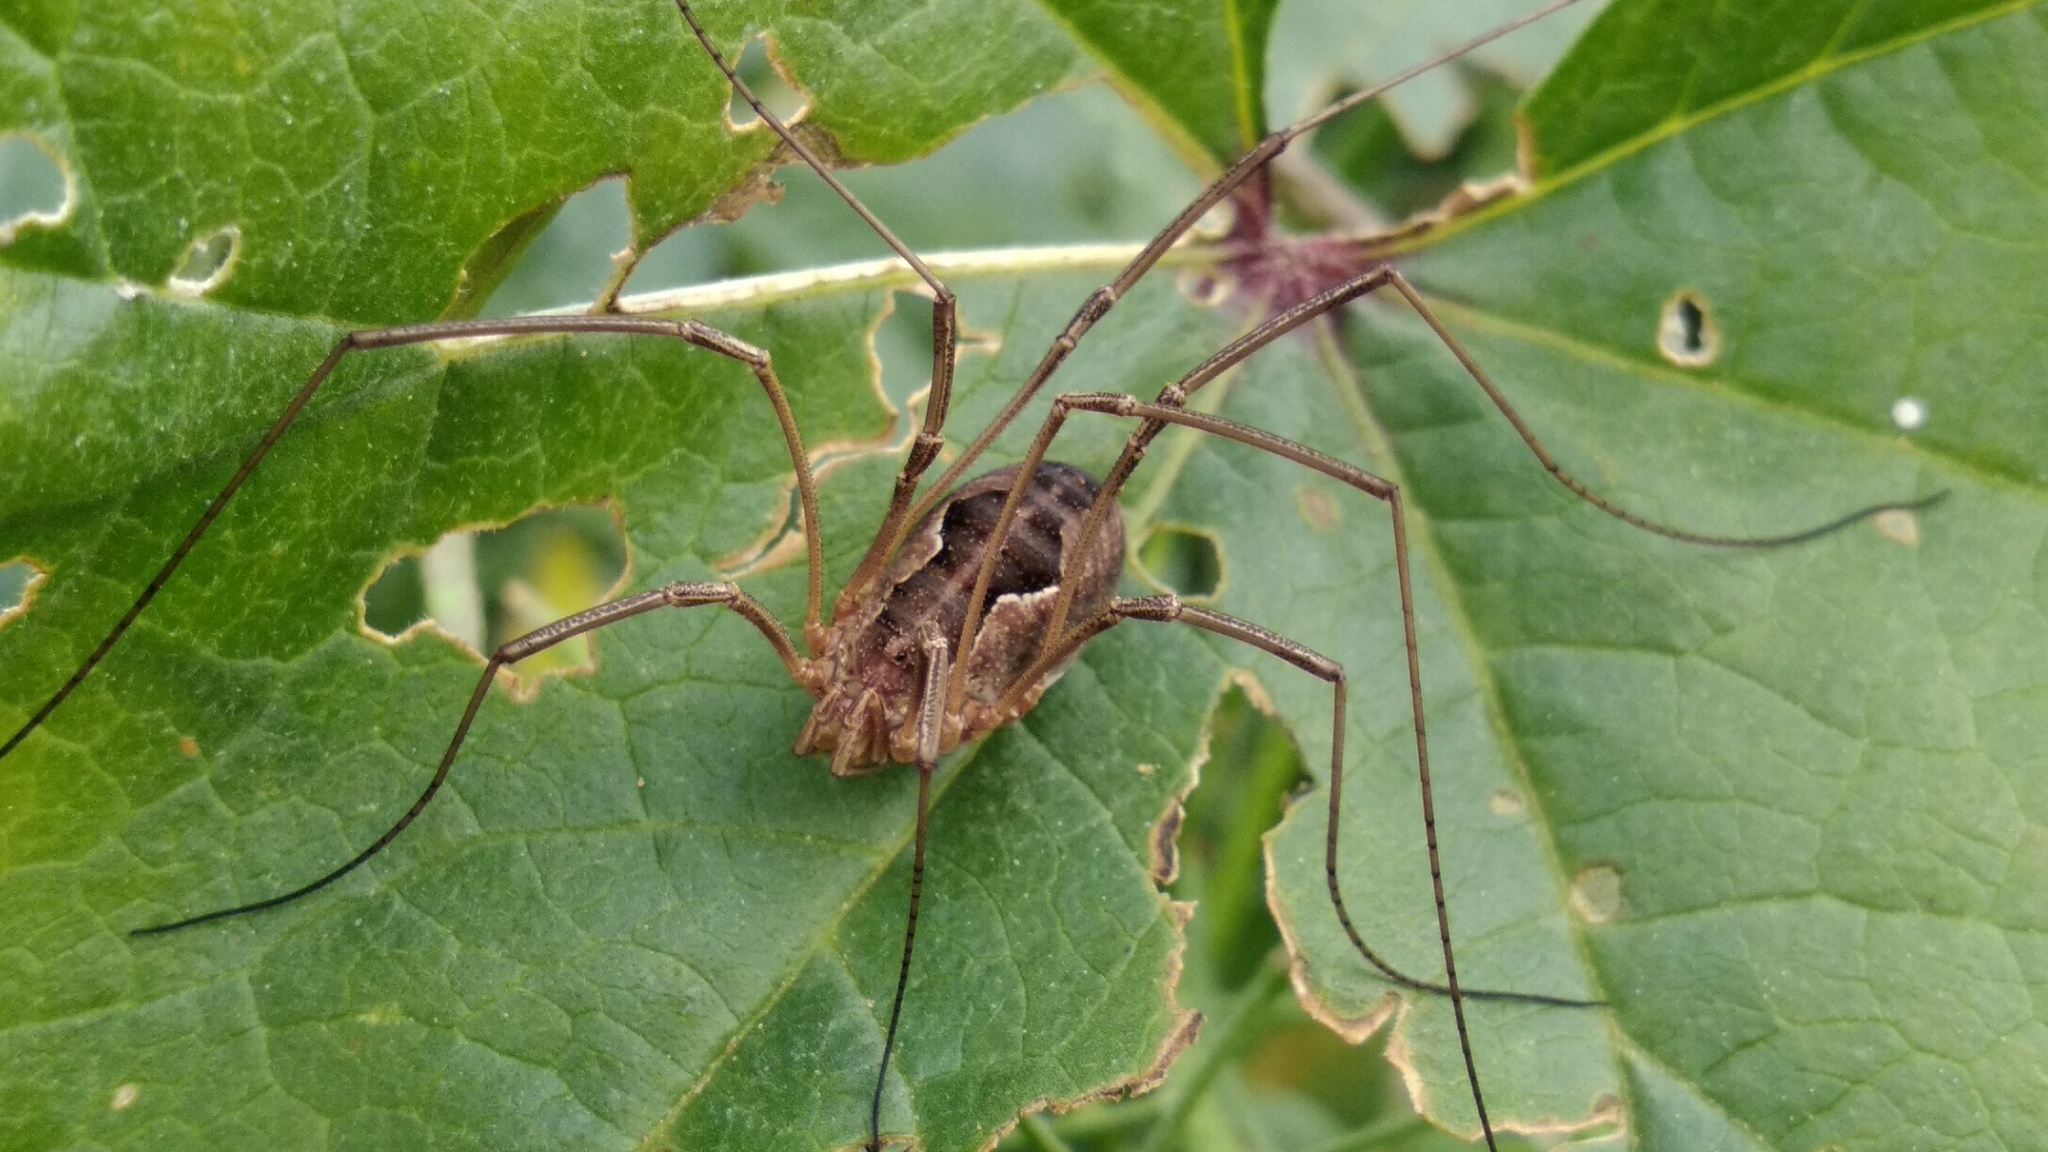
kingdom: Animalia
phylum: Arthropoda
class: Arachnida
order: Opiliones
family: Phalangiidae
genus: Phalangium
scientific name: Phalangium opilio
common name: Daddy longleg
